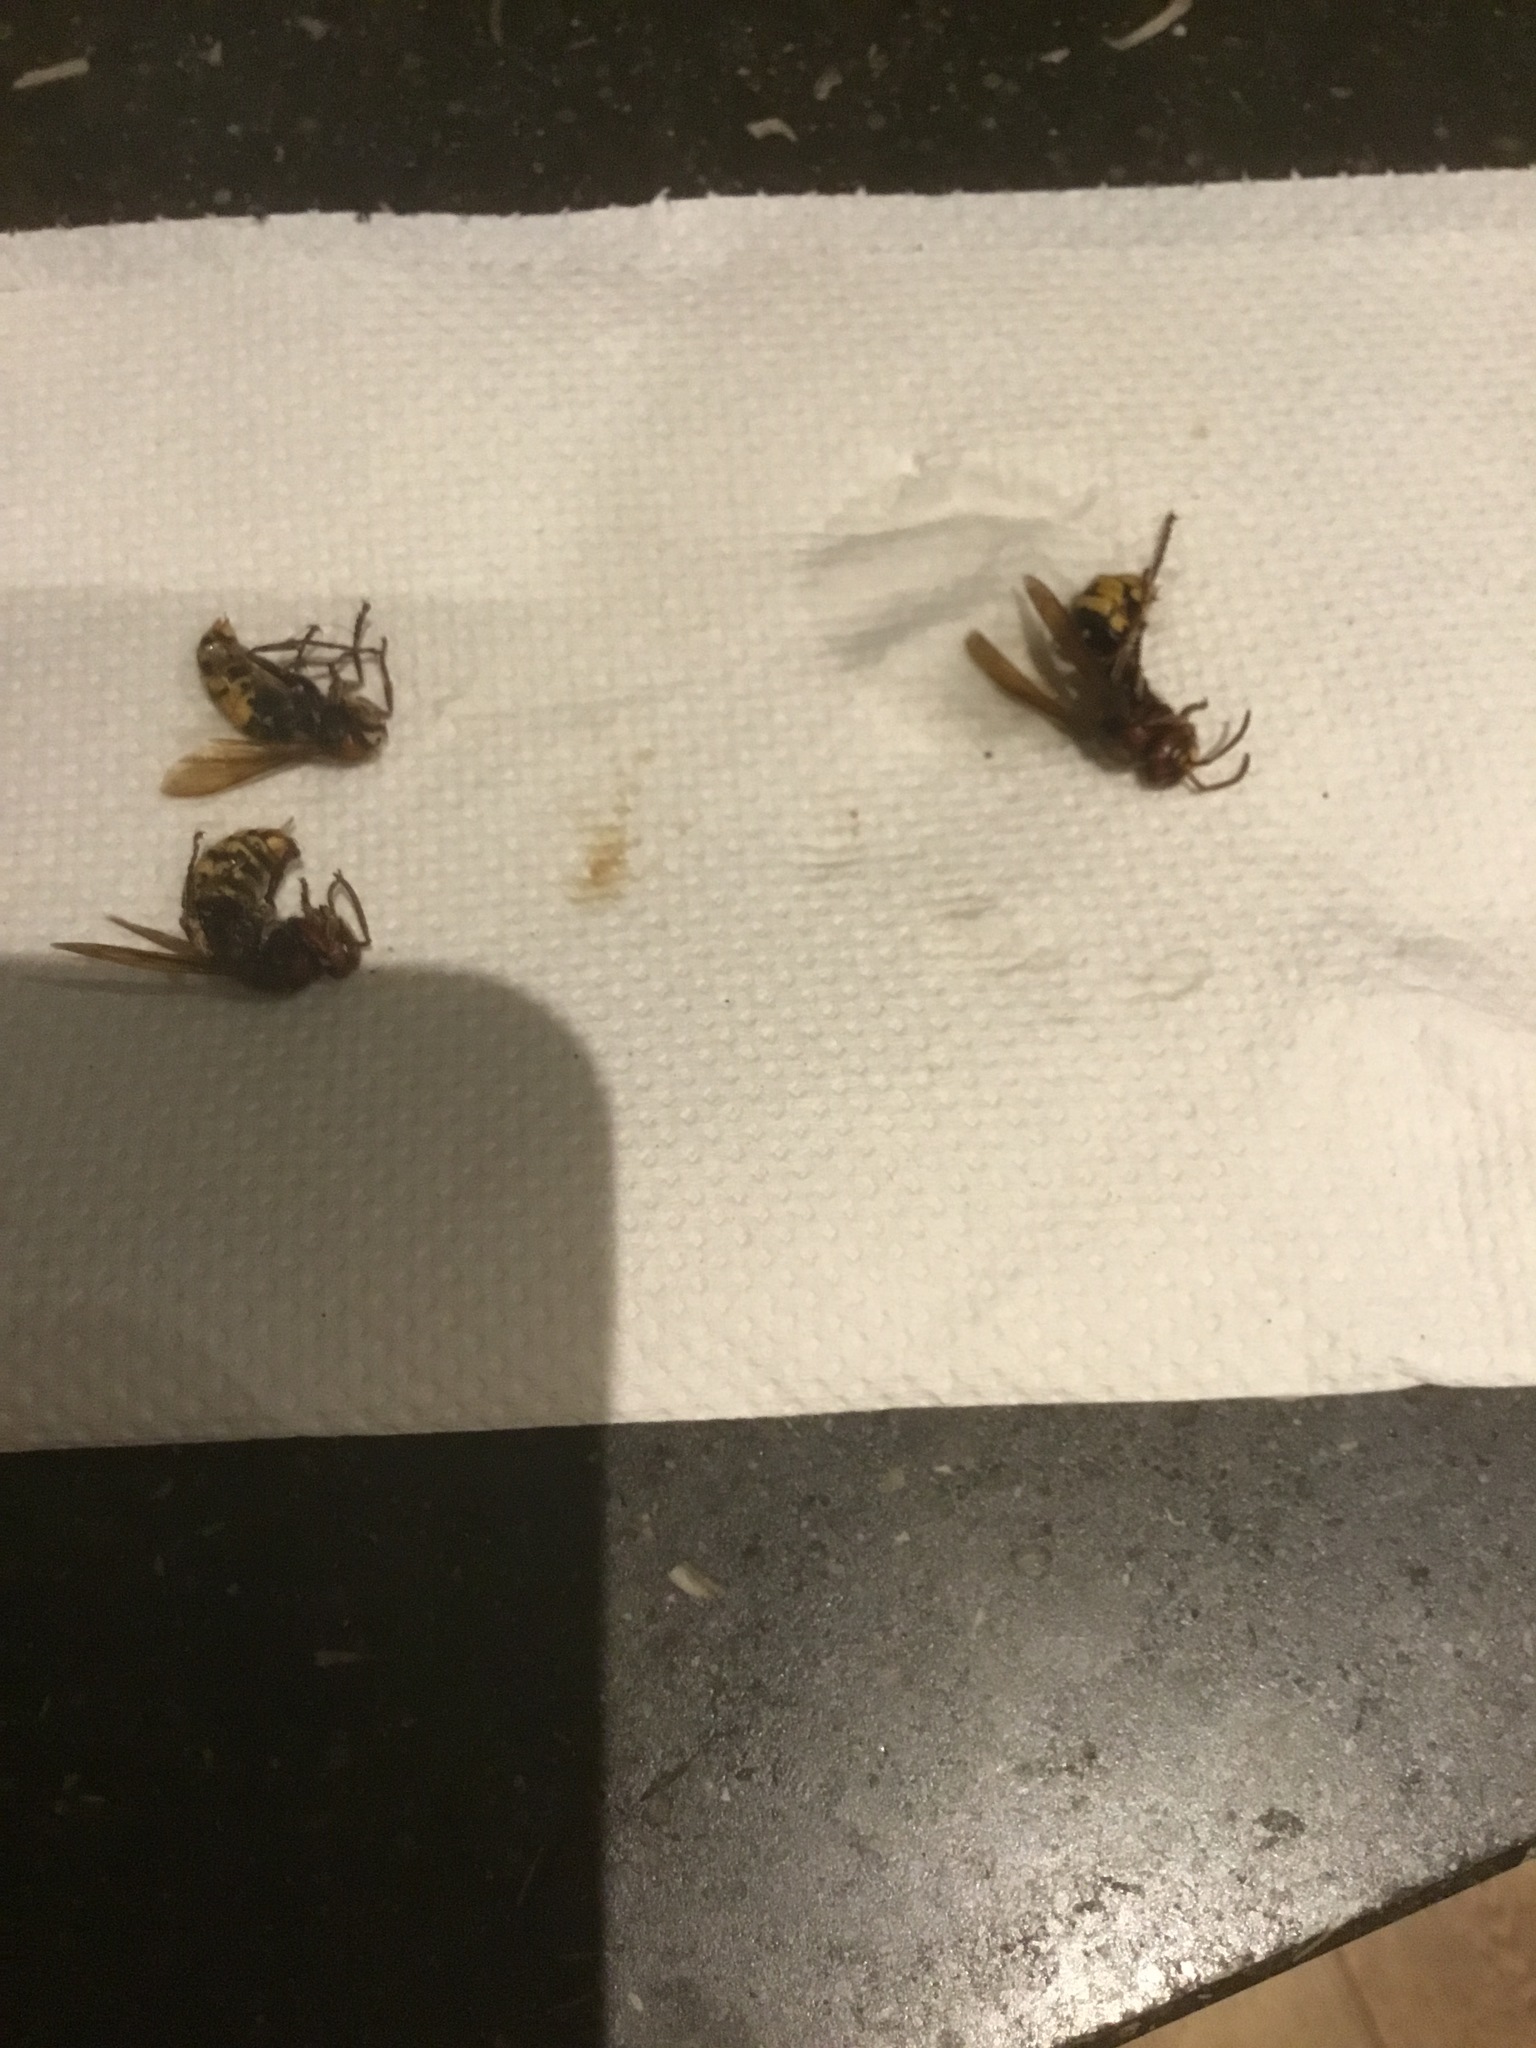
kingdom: Animalia
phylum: Arthropoda
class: Insecta
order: Hymenoptera
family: Vespidae
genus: Vespa
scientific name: Vespa crabro
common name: Hornet
